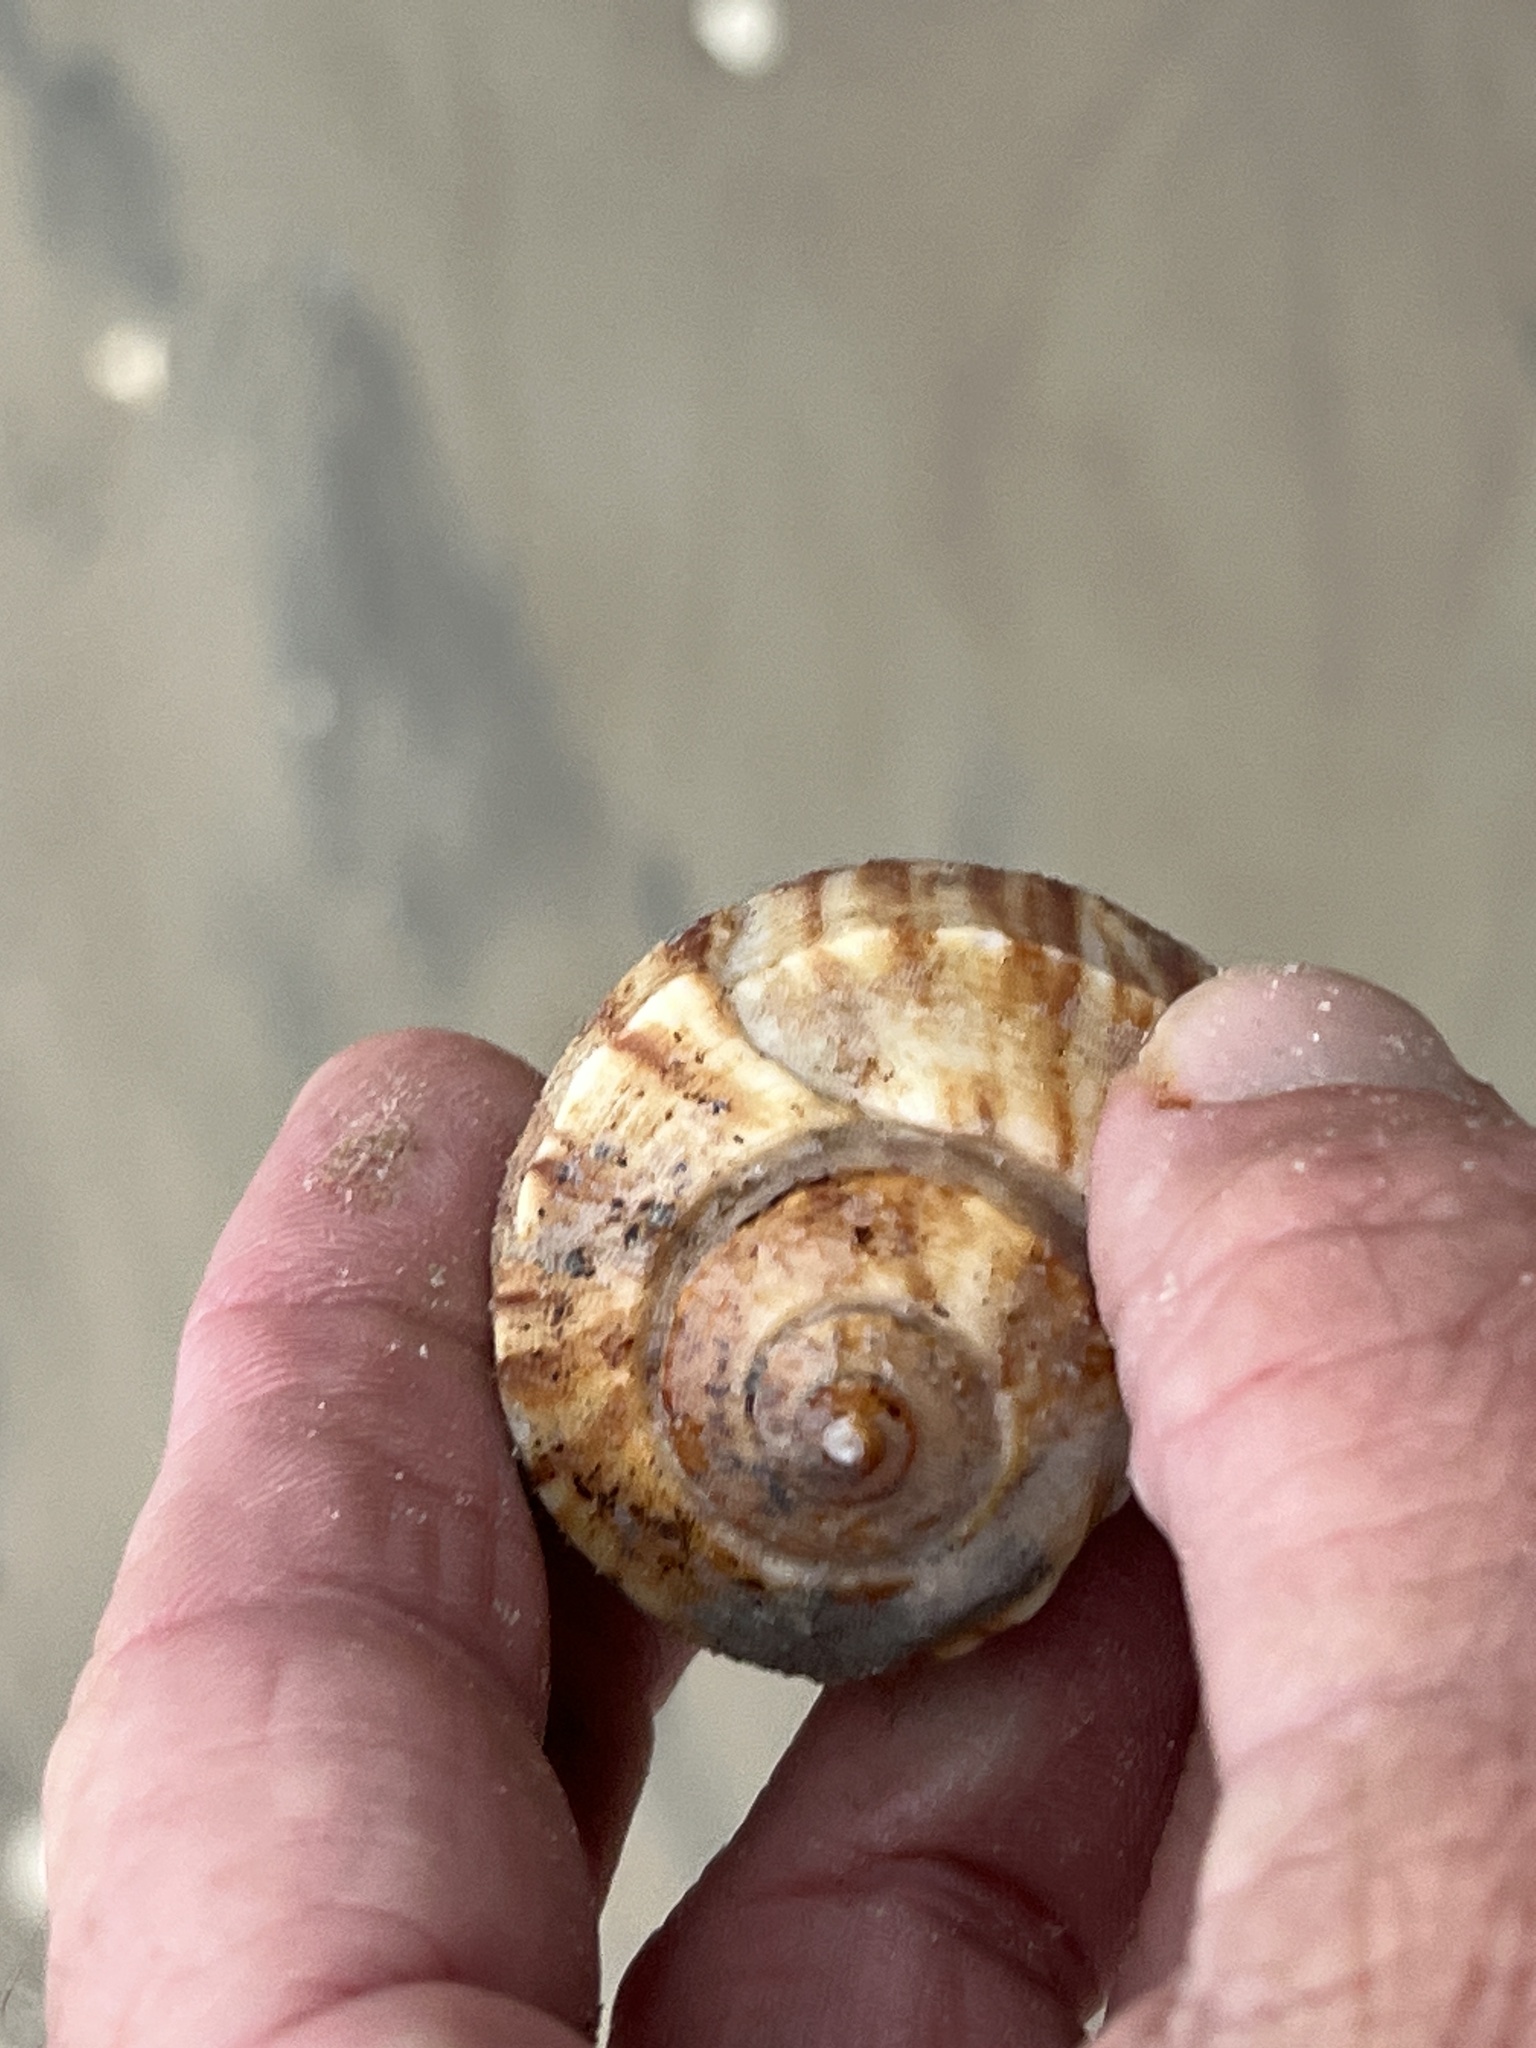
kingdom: Animalia
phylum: Mollusca
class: Gastropoda
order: Neogastropoda
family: Busyconidae
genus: Fulguropsis
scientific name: Fulguropsis spirata
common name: Pear whelk
